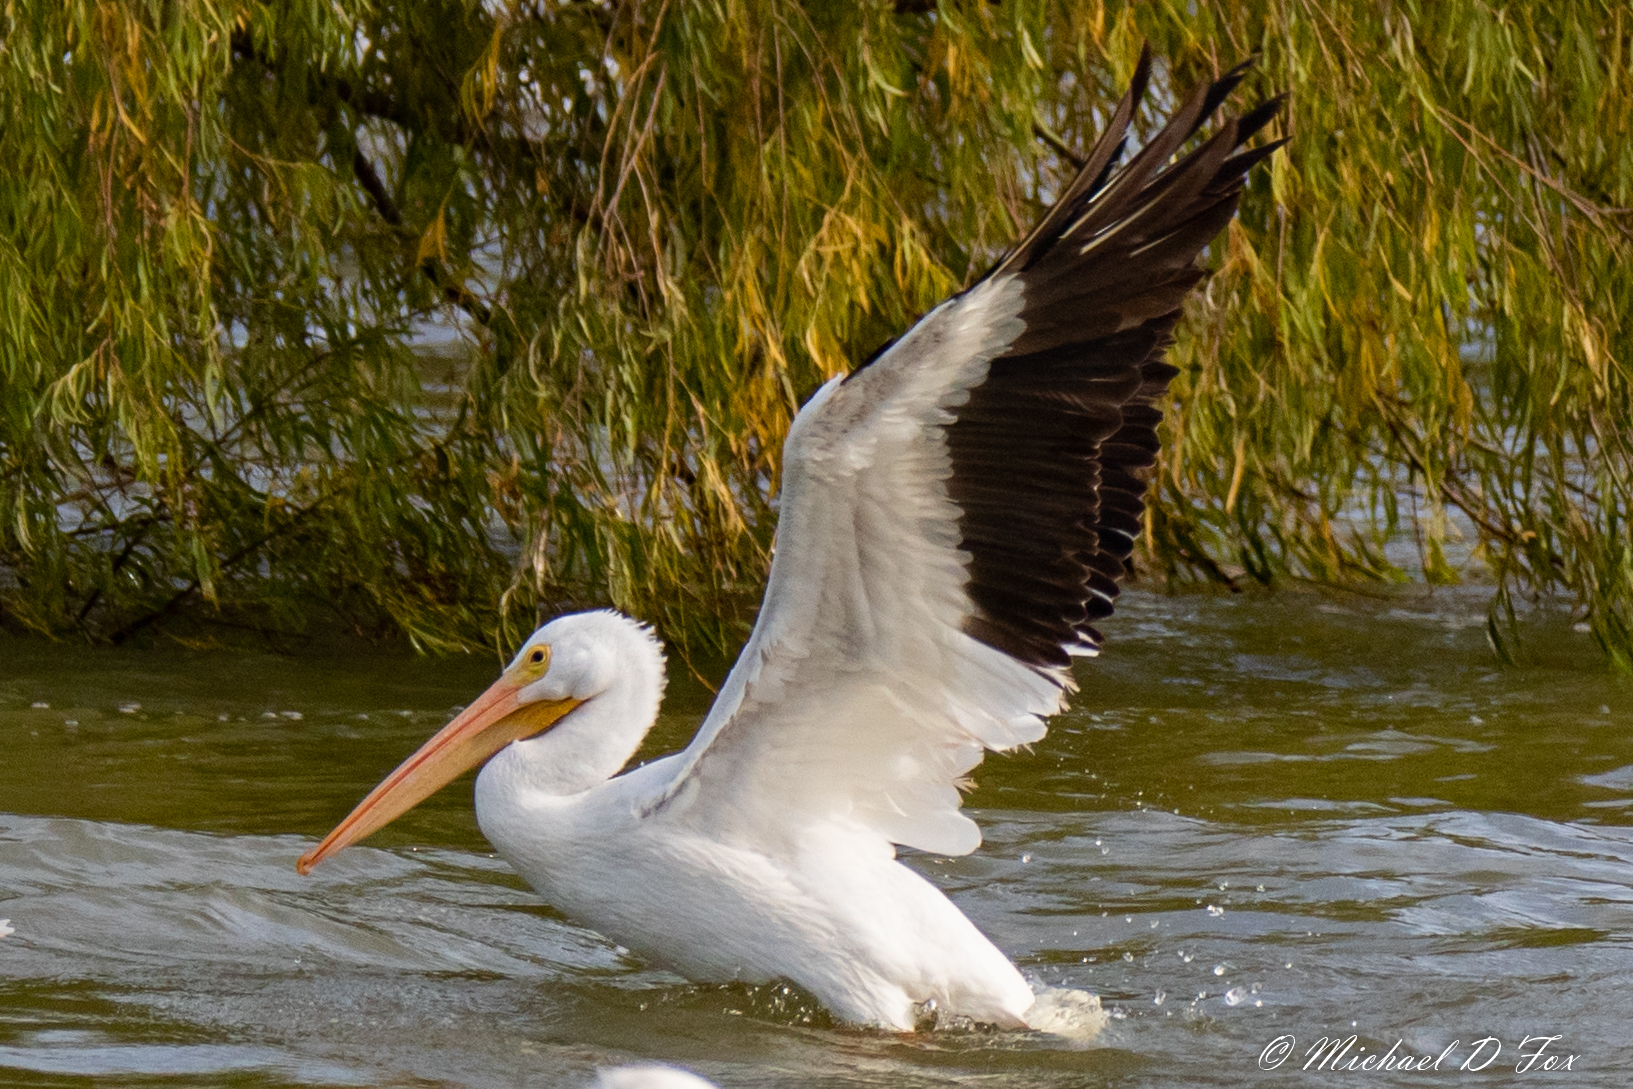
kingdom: Animalia
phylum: Chordata
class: Aves
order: Pelecaniformes
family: Pelecanidae
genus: Pelecanus
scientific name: Pelecanus erythrorhynchos
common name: American white pelican
